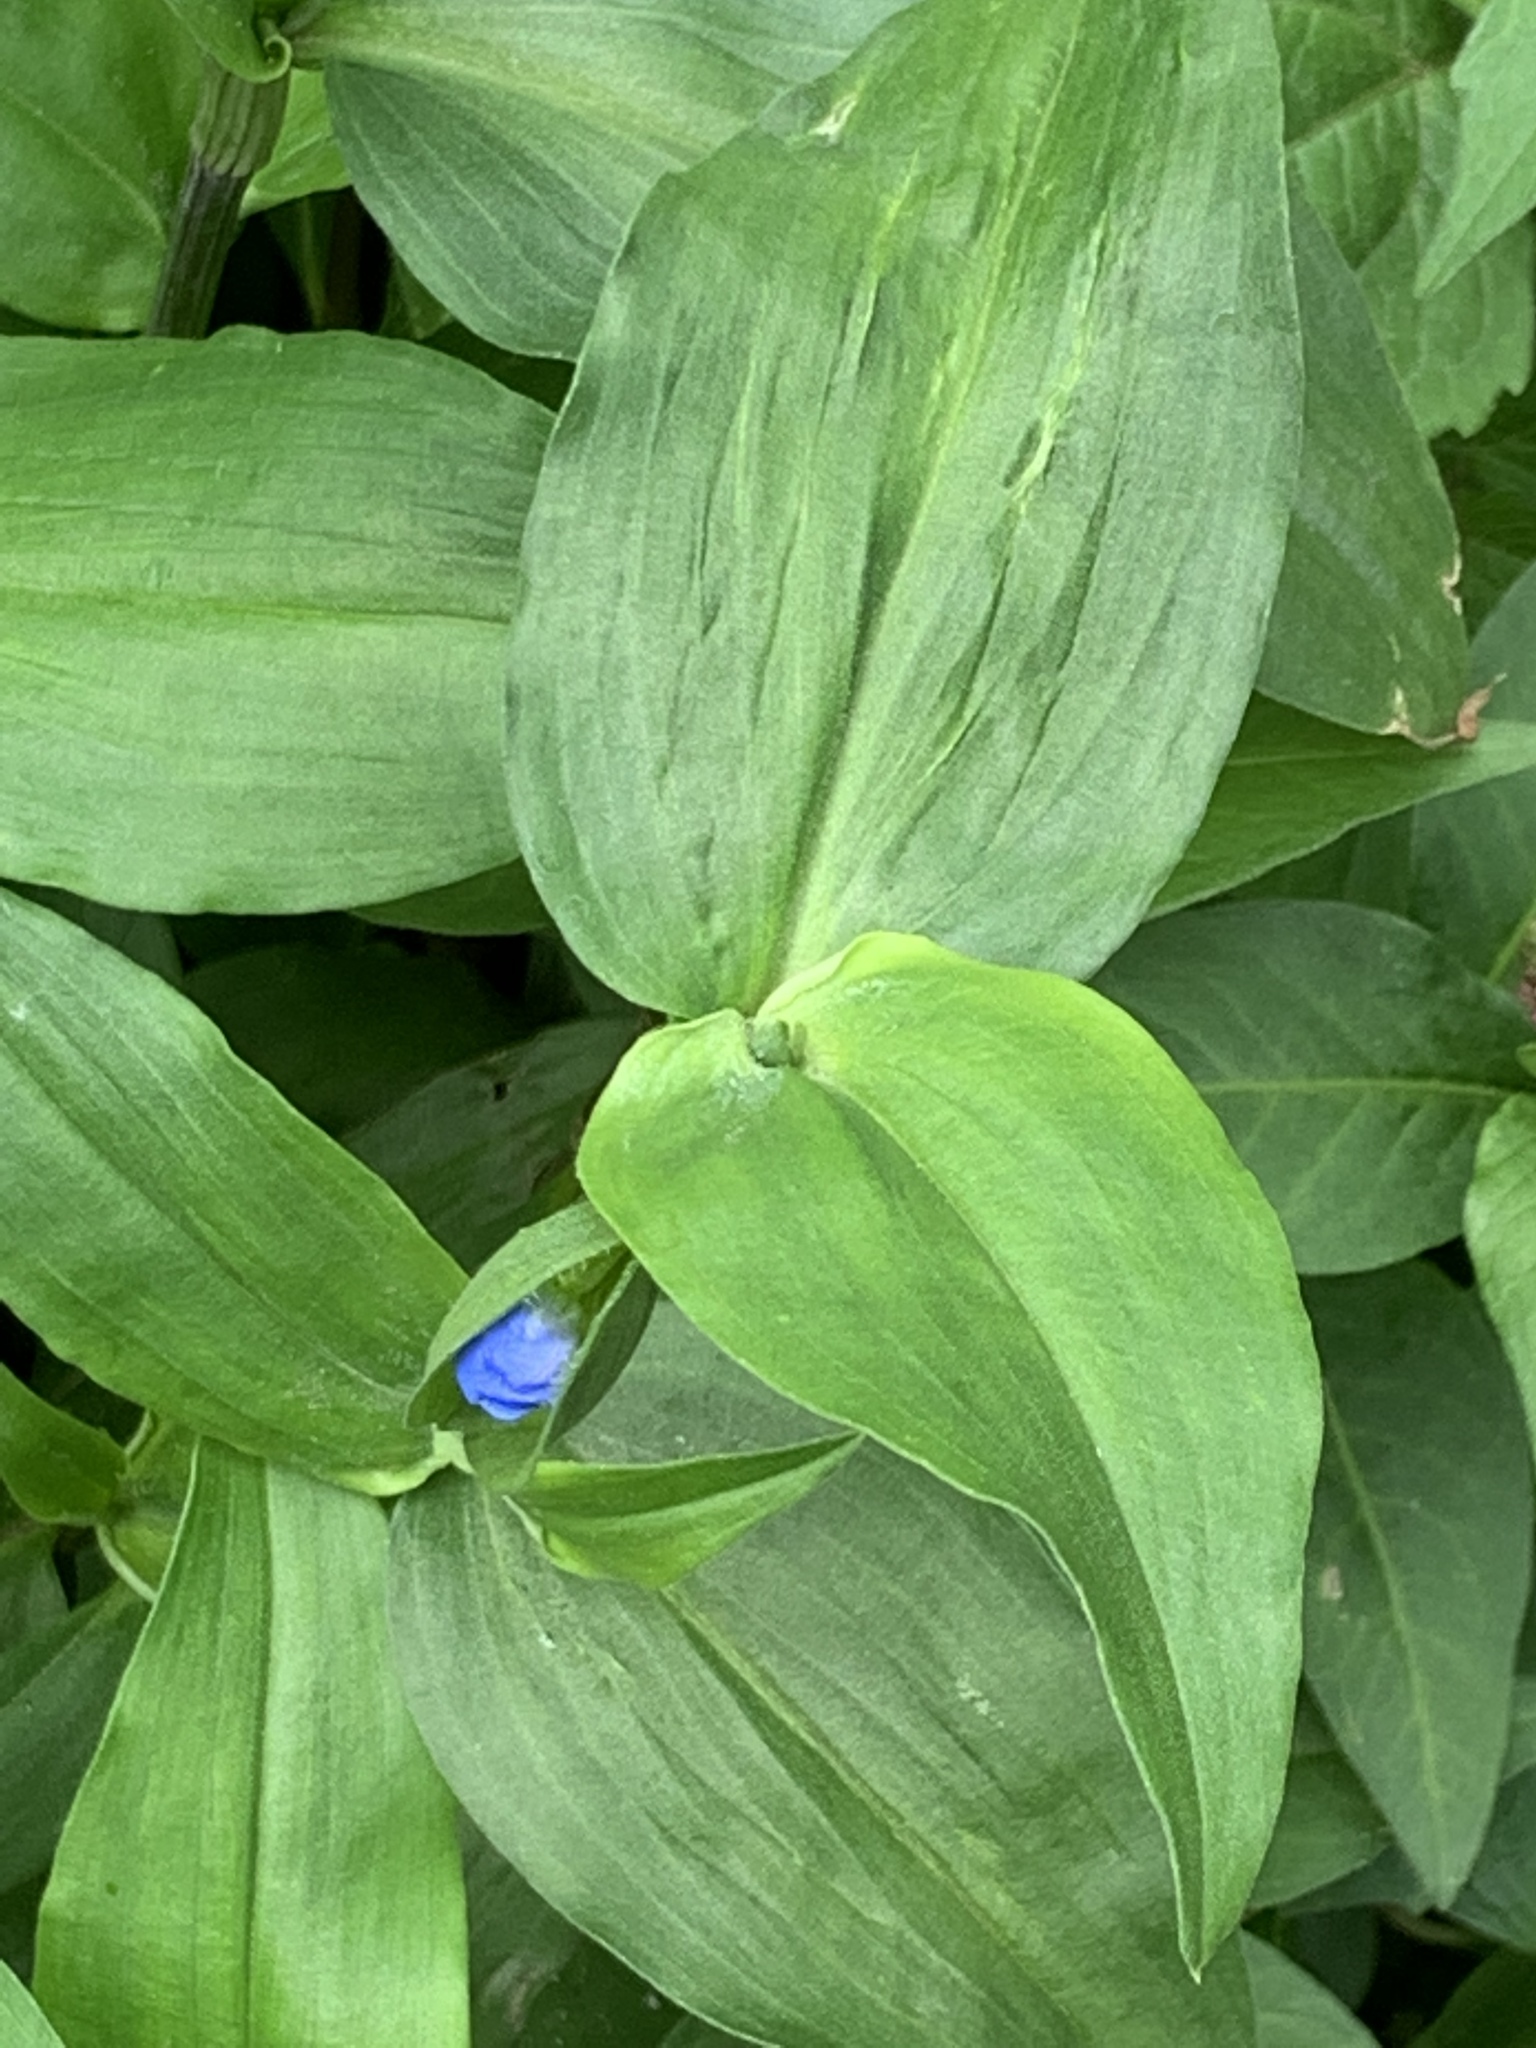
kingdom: Plantae
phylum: Tracheophyta
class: Liliopsida
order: Commelinales
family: Commelinaceae
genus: Commelina
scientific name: Commelina communis
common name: Asiatic dayflower
